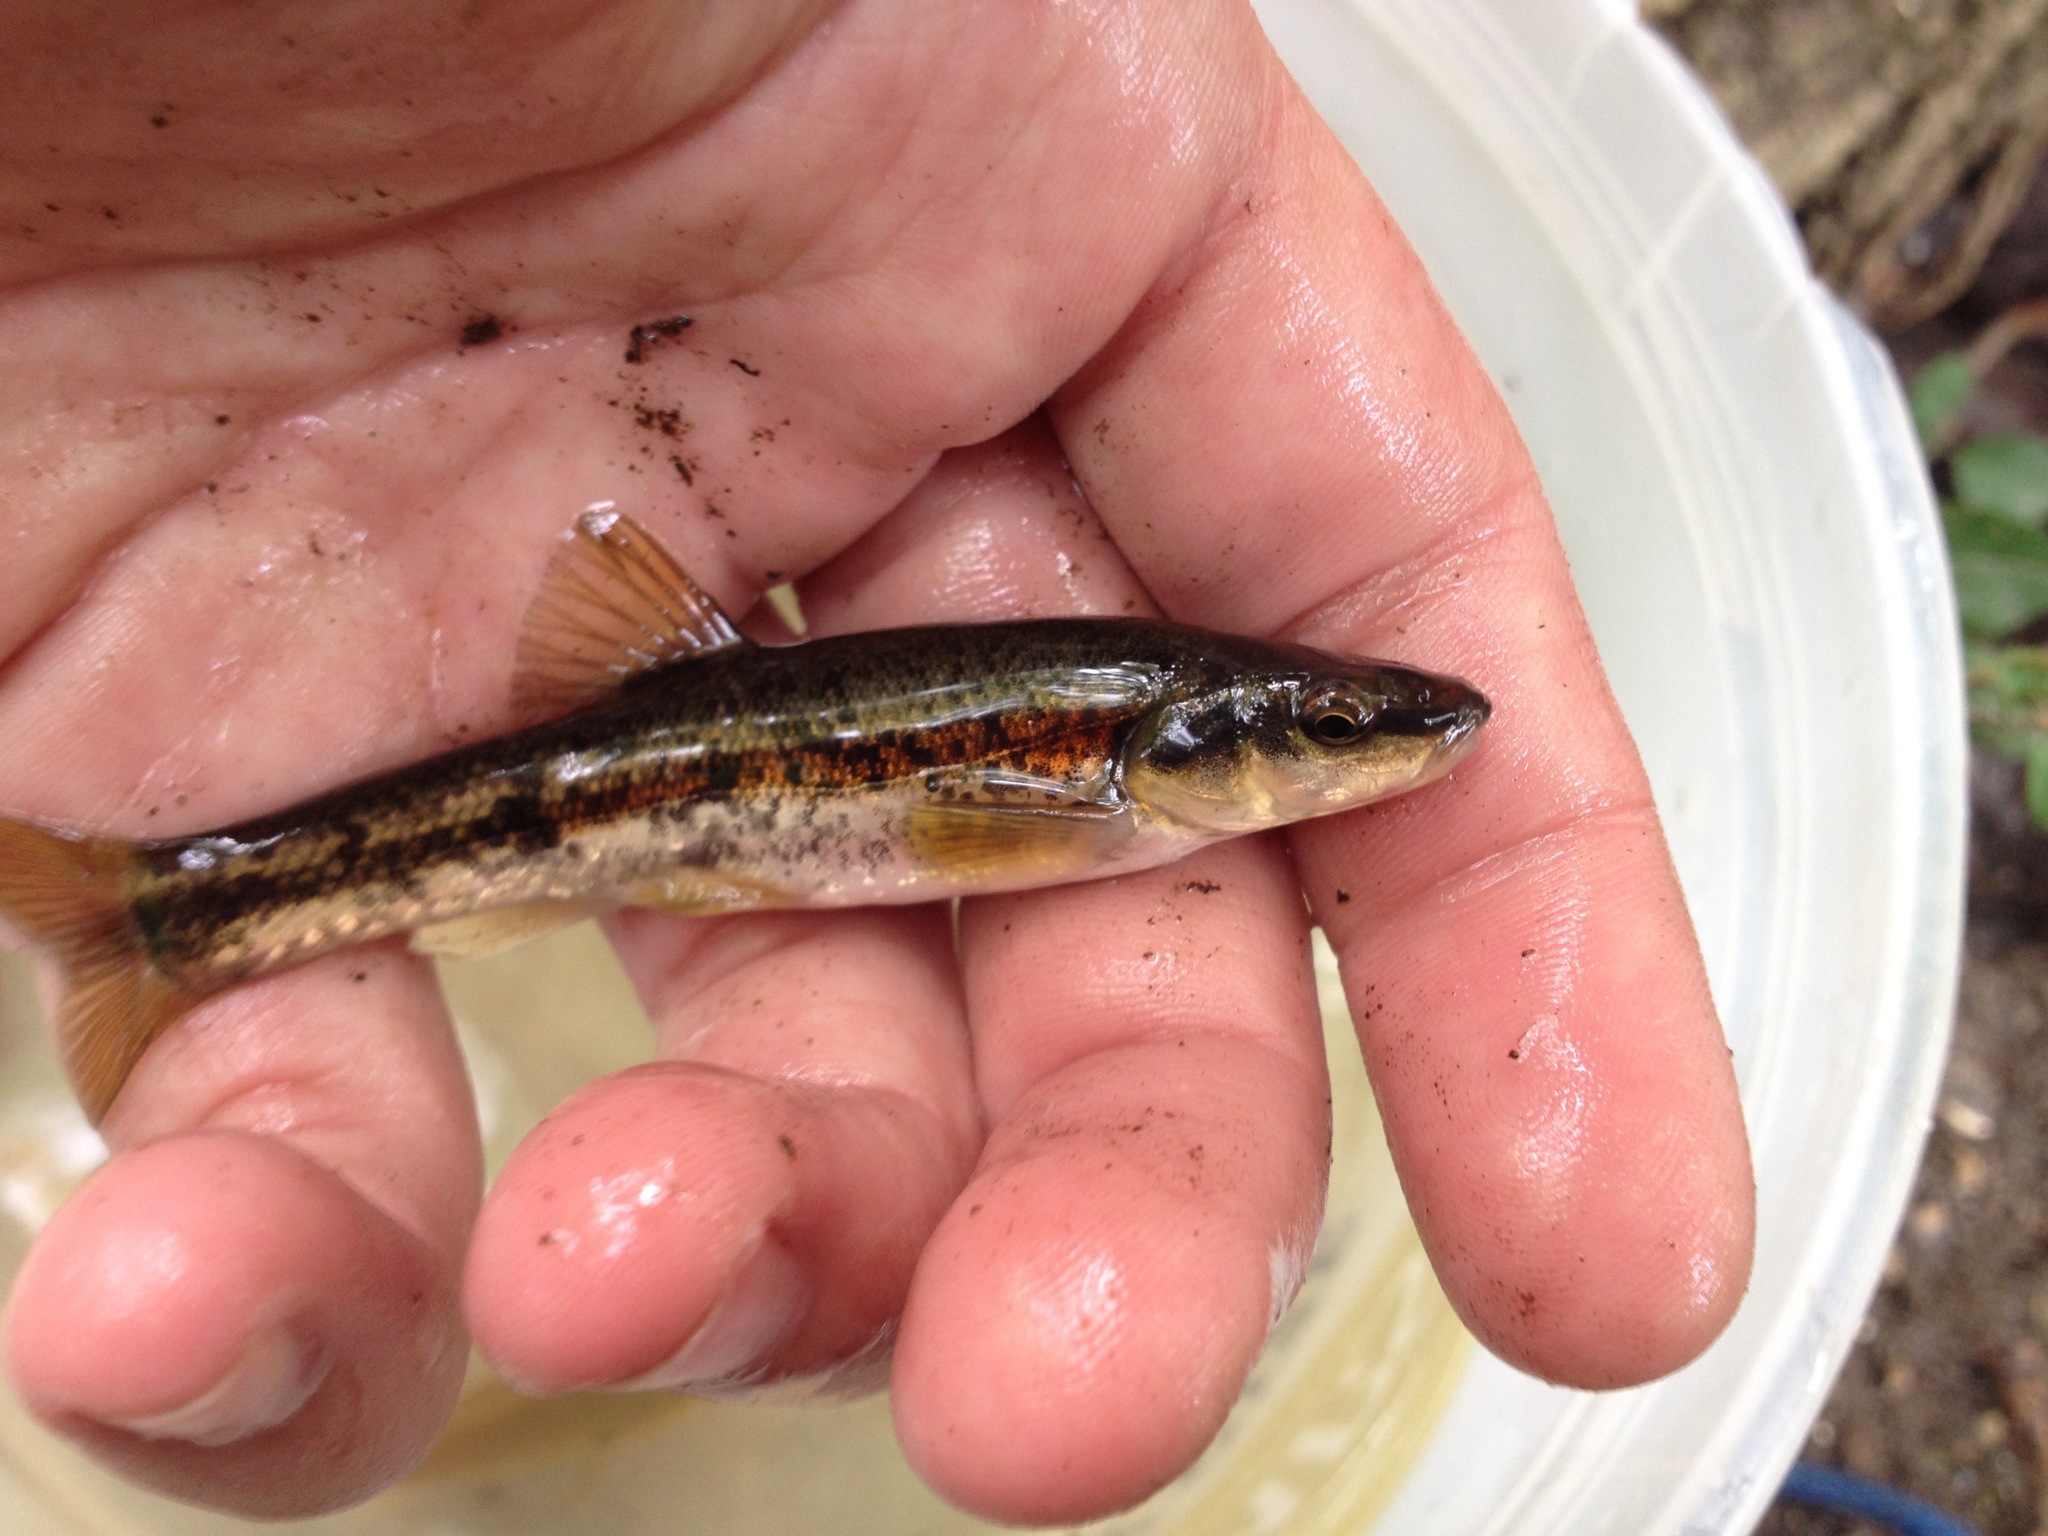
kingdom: Animalia
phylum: Chordata
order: Cypriniformes
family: Cyprinidae
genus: Rhinichthys
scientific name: Rhinichthys obtusus
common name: Western blacknose dace
